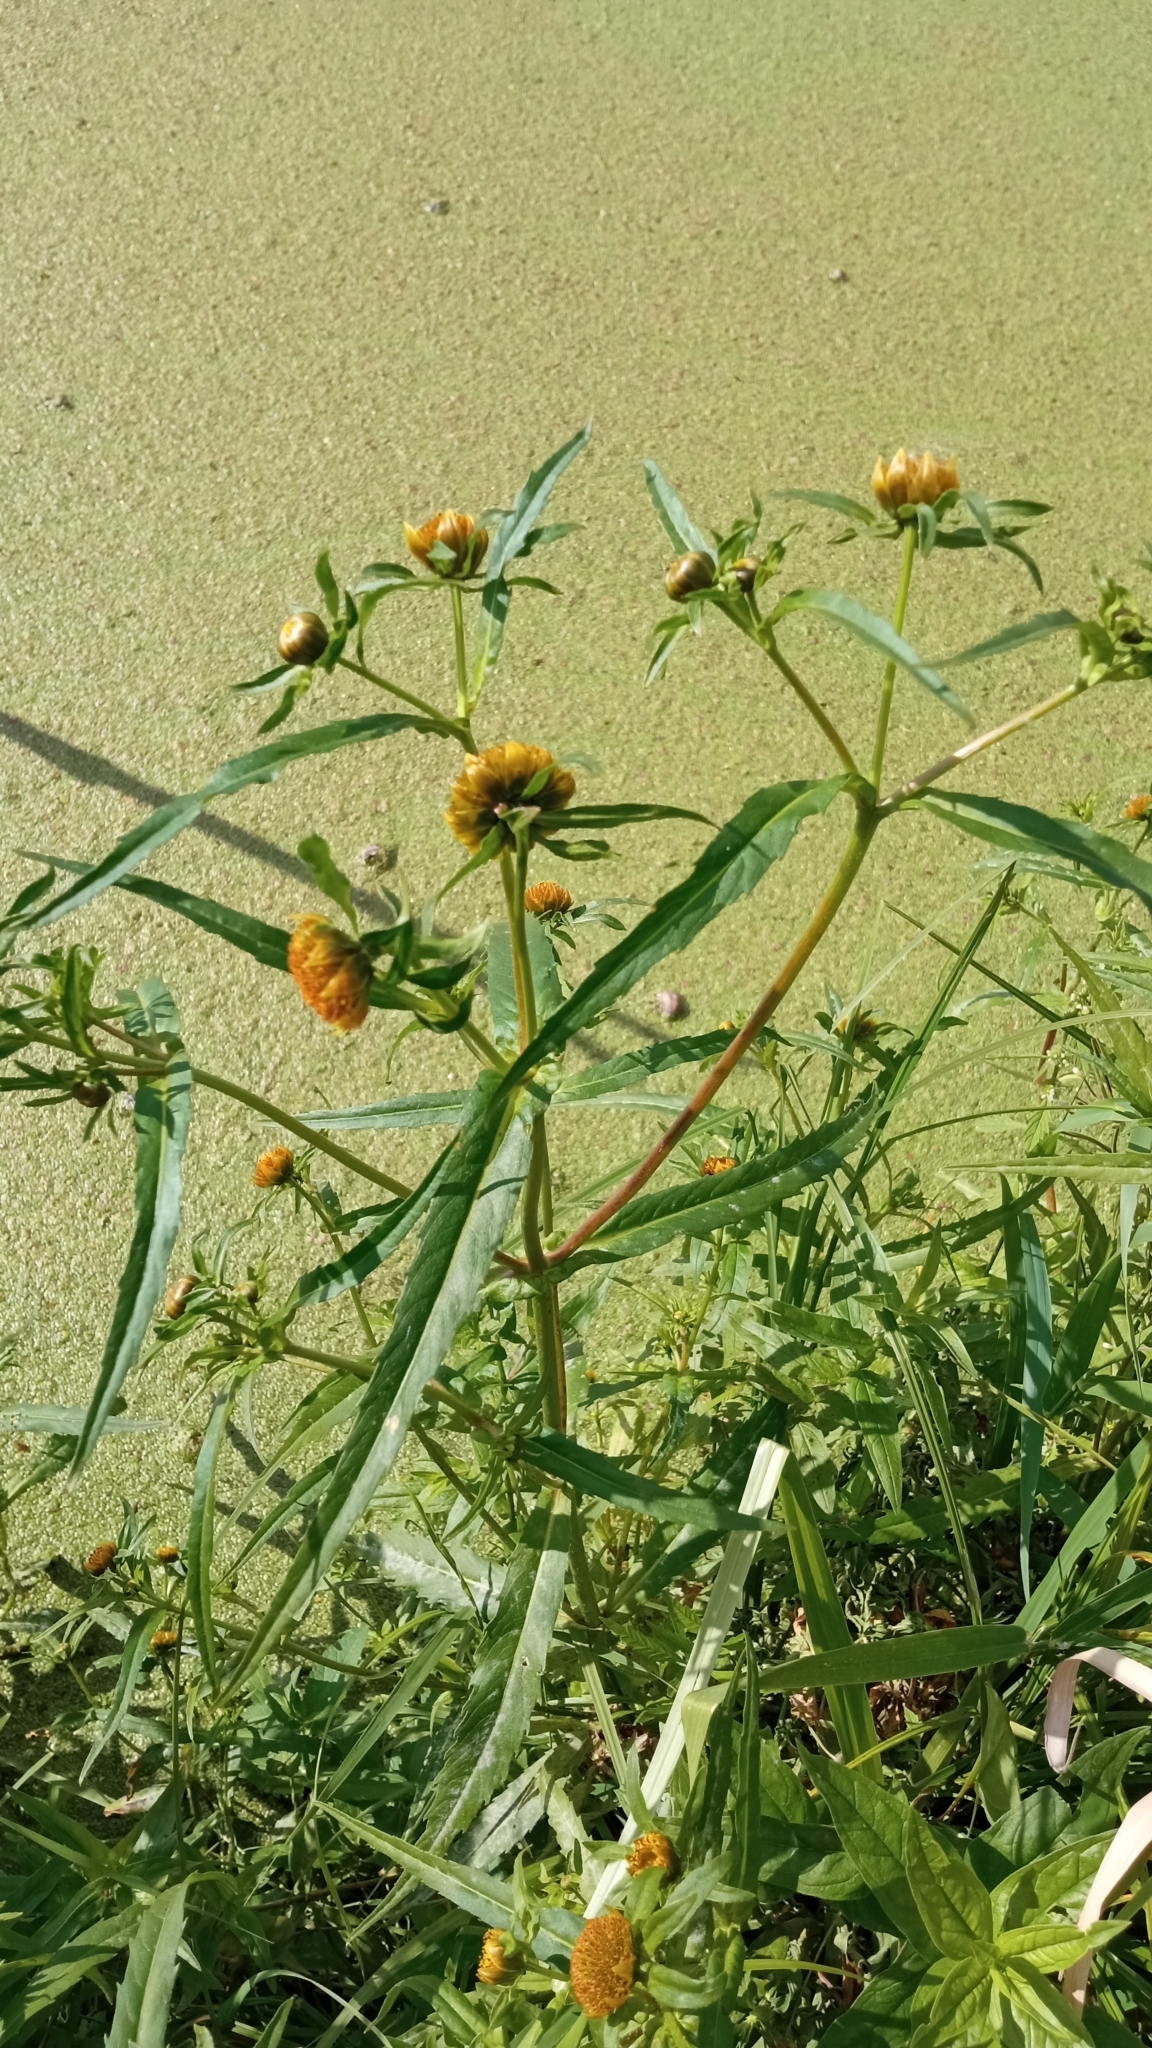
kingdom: Plantae
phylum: Tracheophyta
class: Magnoliopsida
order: Asterales
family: Asteraceae
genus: Bidens
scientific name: Bidens cernua
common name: Nodding bur-marigold
